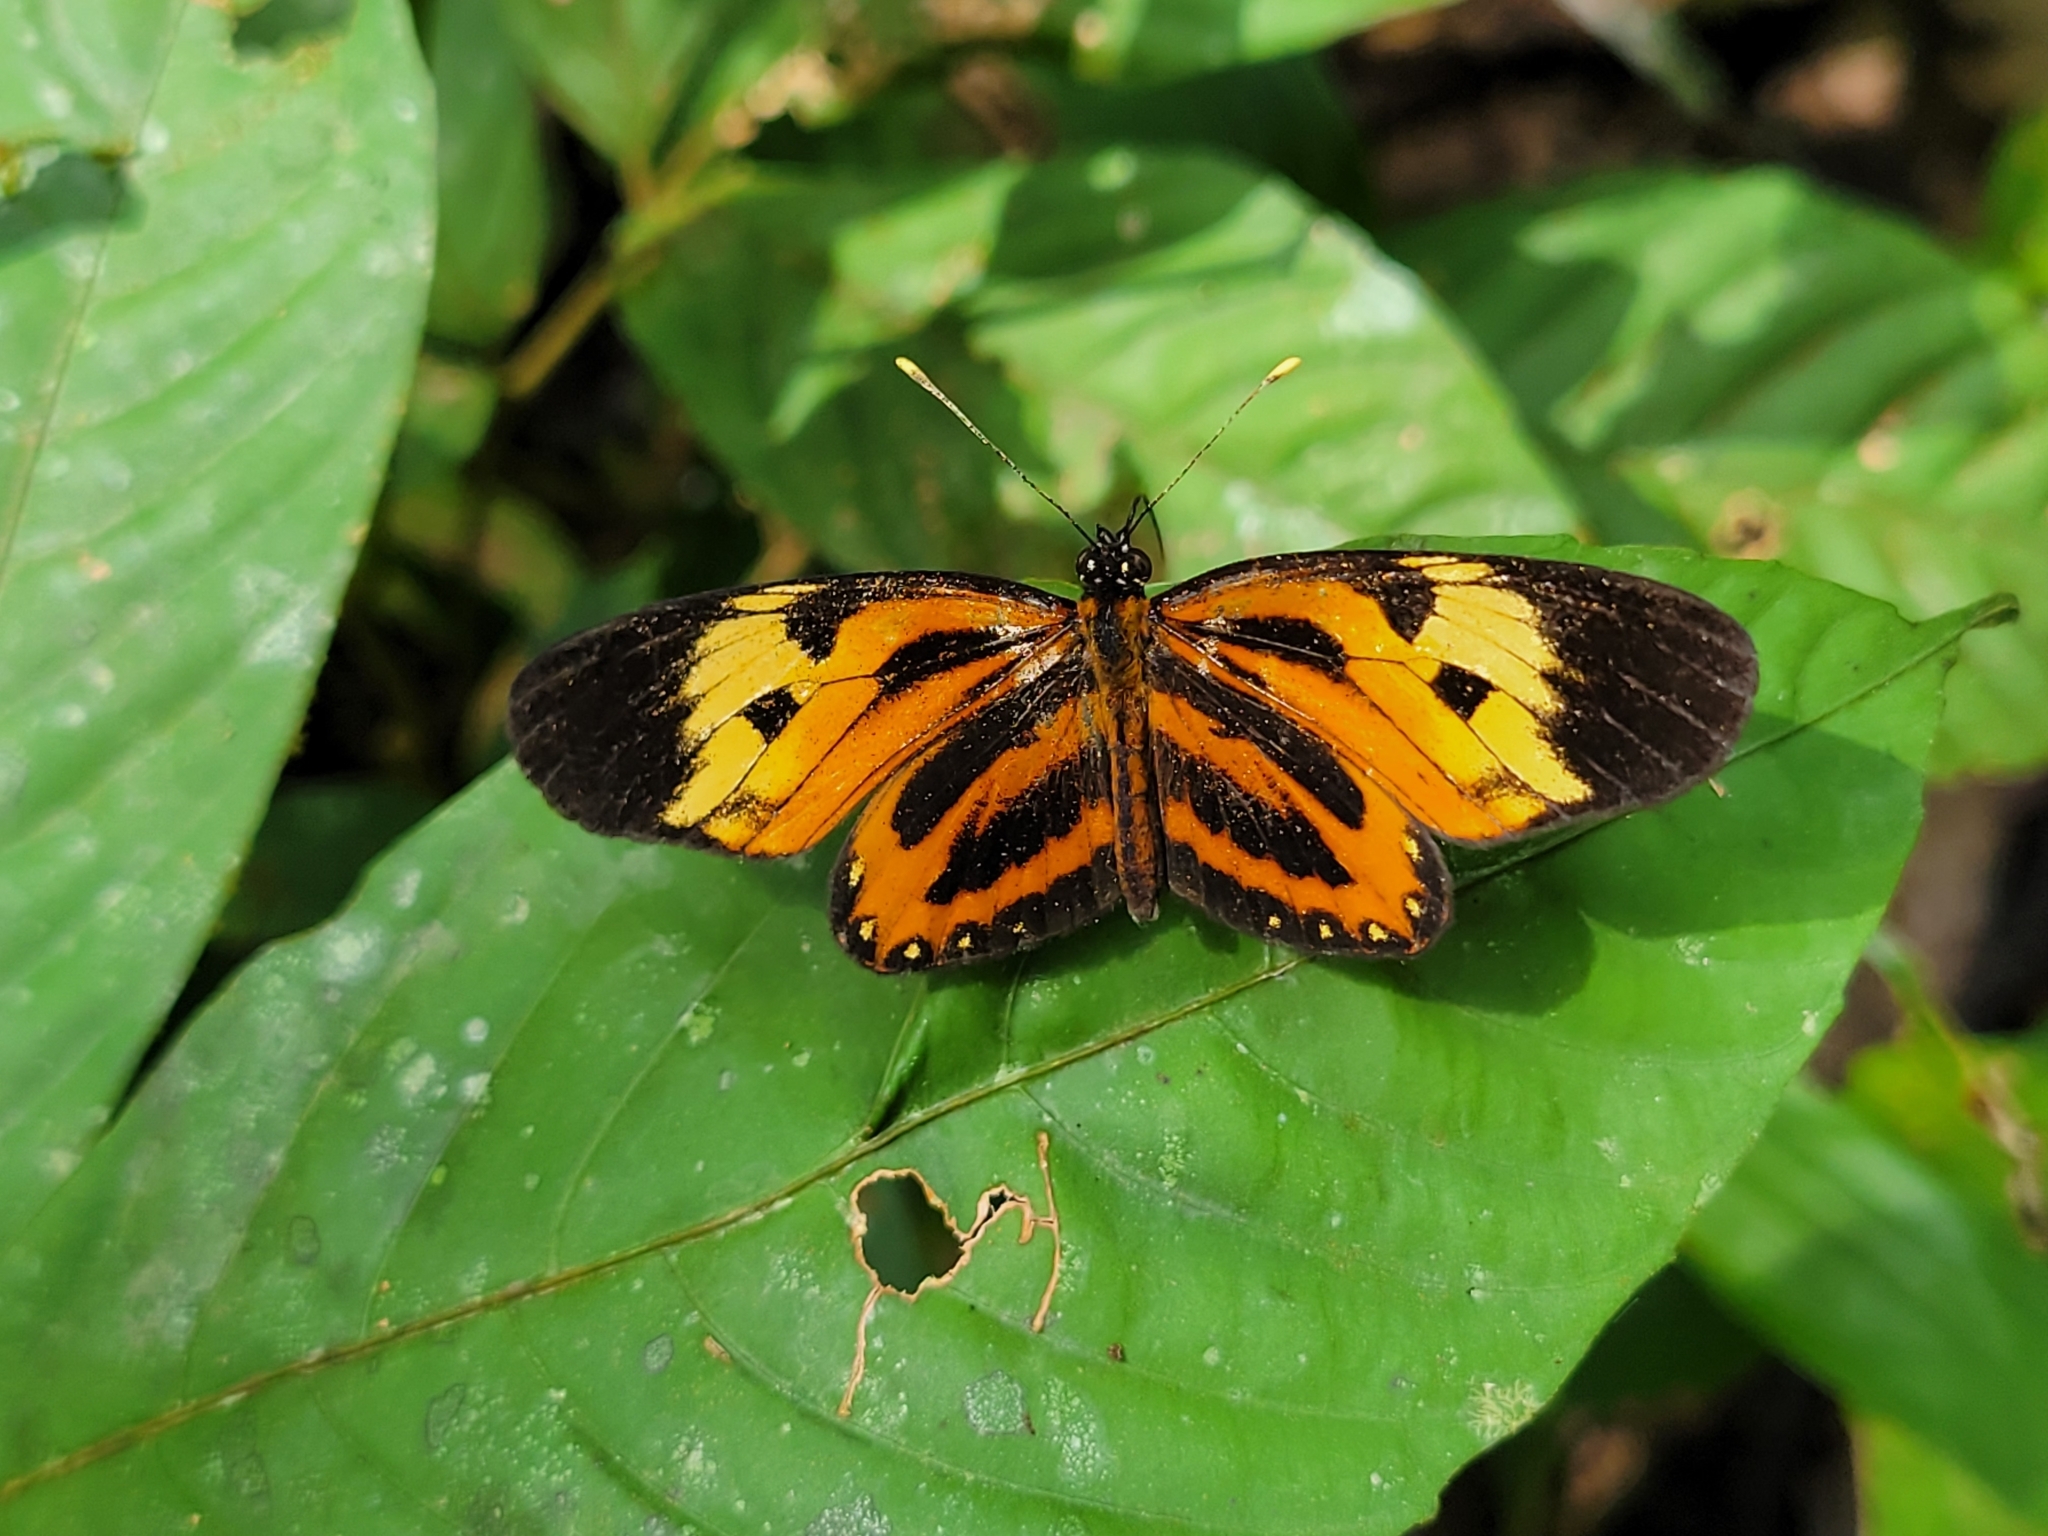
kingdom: Animalia
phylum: Arthropoda
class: Insecta
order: Lepidoptera
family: Nymphalidae
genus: Eresia
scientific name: Eresia pelonia
